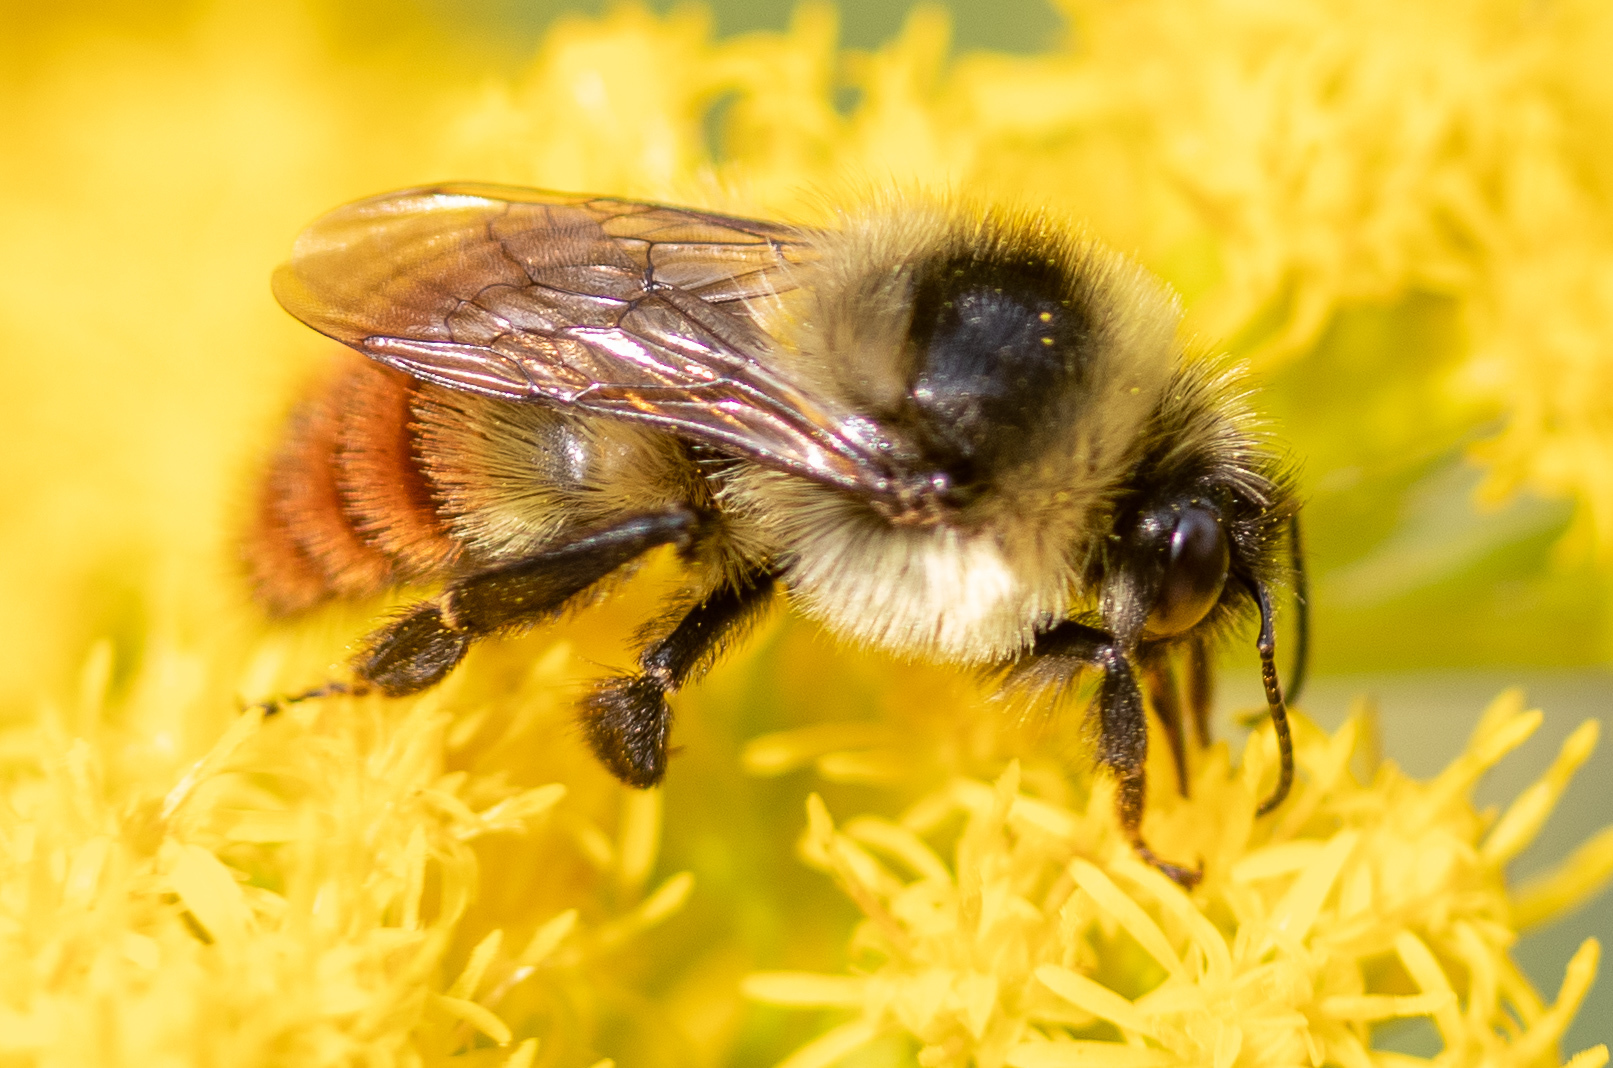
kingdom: Animalia
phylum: Arthropoda
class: Insecta
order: Hymenoptera
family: Apidae
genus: Bombus
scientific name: Bombus rufocinctus
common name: Red-belted bumble bee
